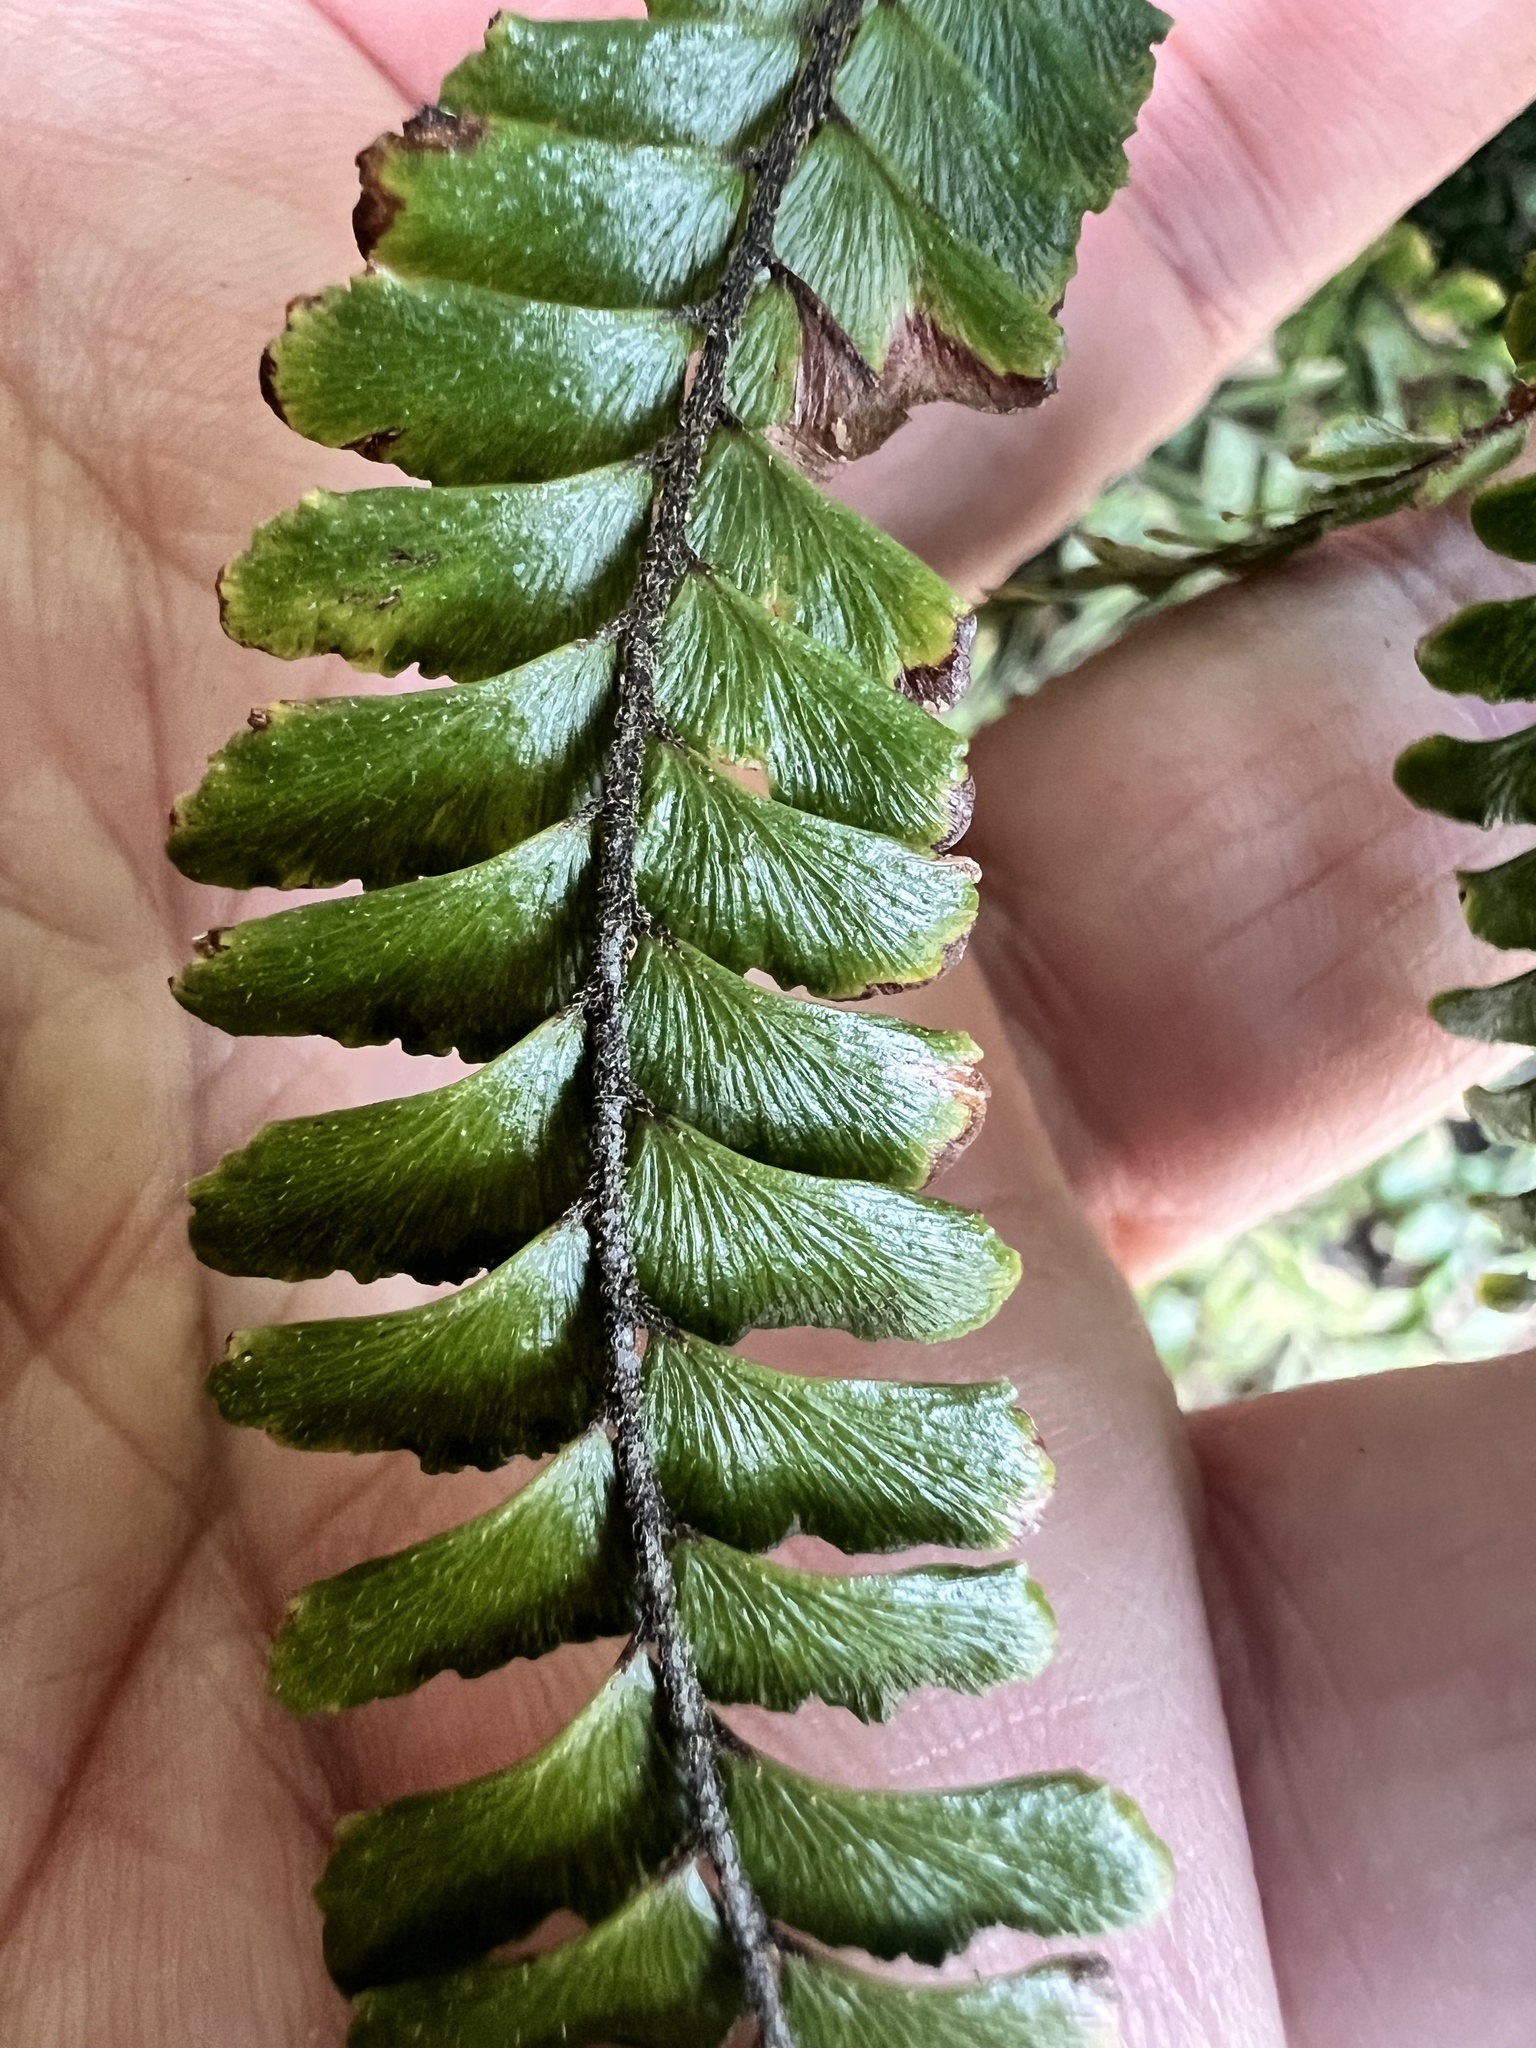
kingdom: Plantae
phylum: Tracheophyta
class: Polypodiopsida
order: Polypodiales
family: Pteridaceae
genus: Adiantum
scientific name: Adiantum hispidulum
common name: Rough maidenhair
